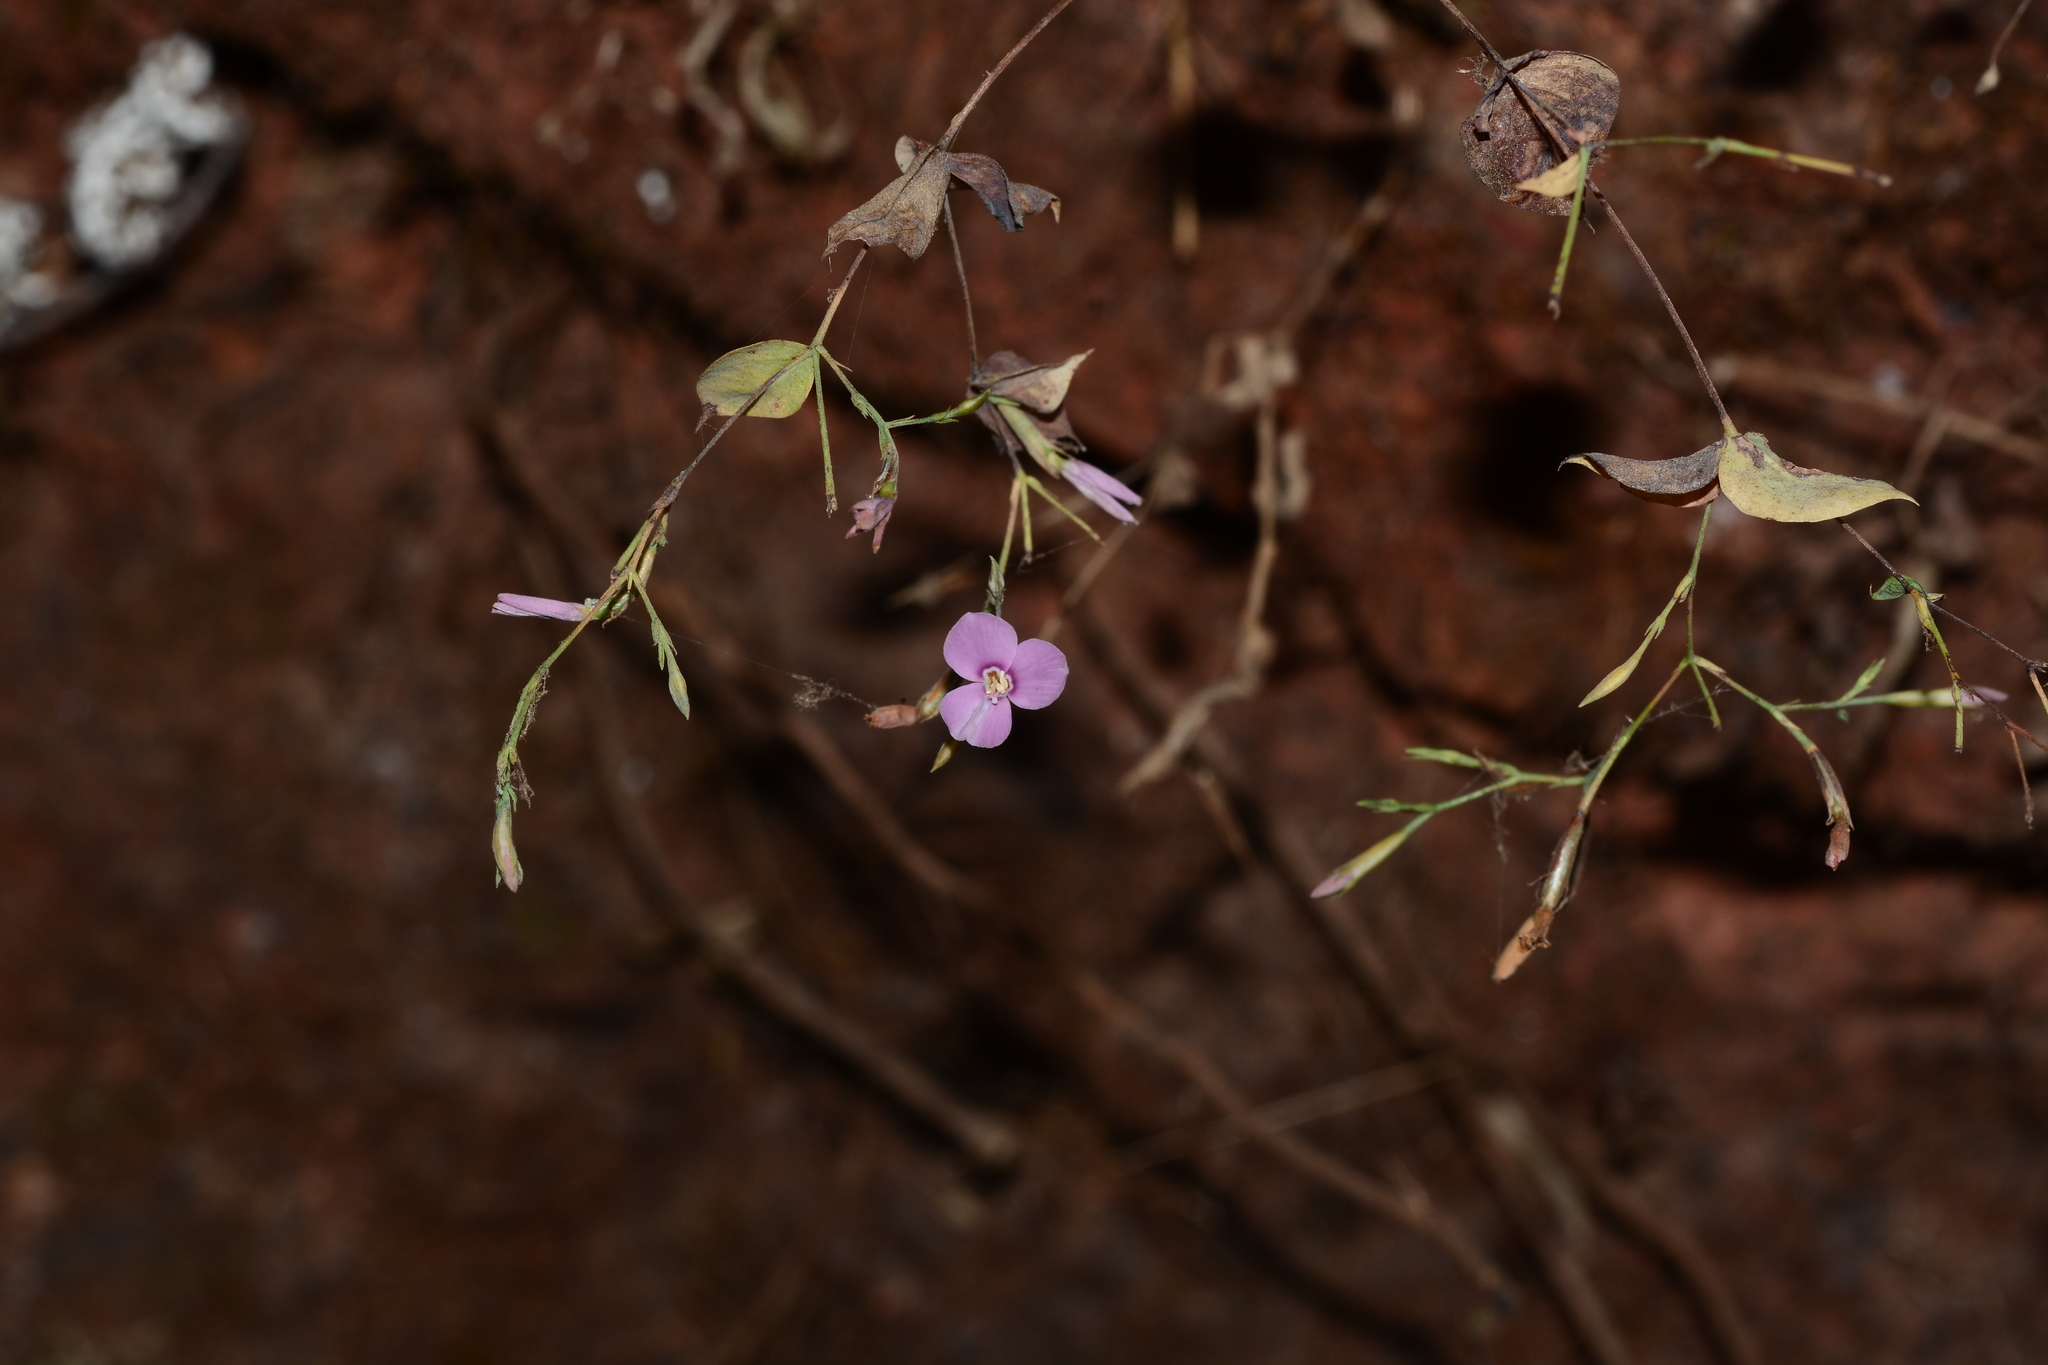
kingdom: Plantae
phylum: Tracheophyta
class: Magnoliopsida
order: Gentianales
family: Gentianaceae
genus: Canscora
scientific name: Canscora diffusa
